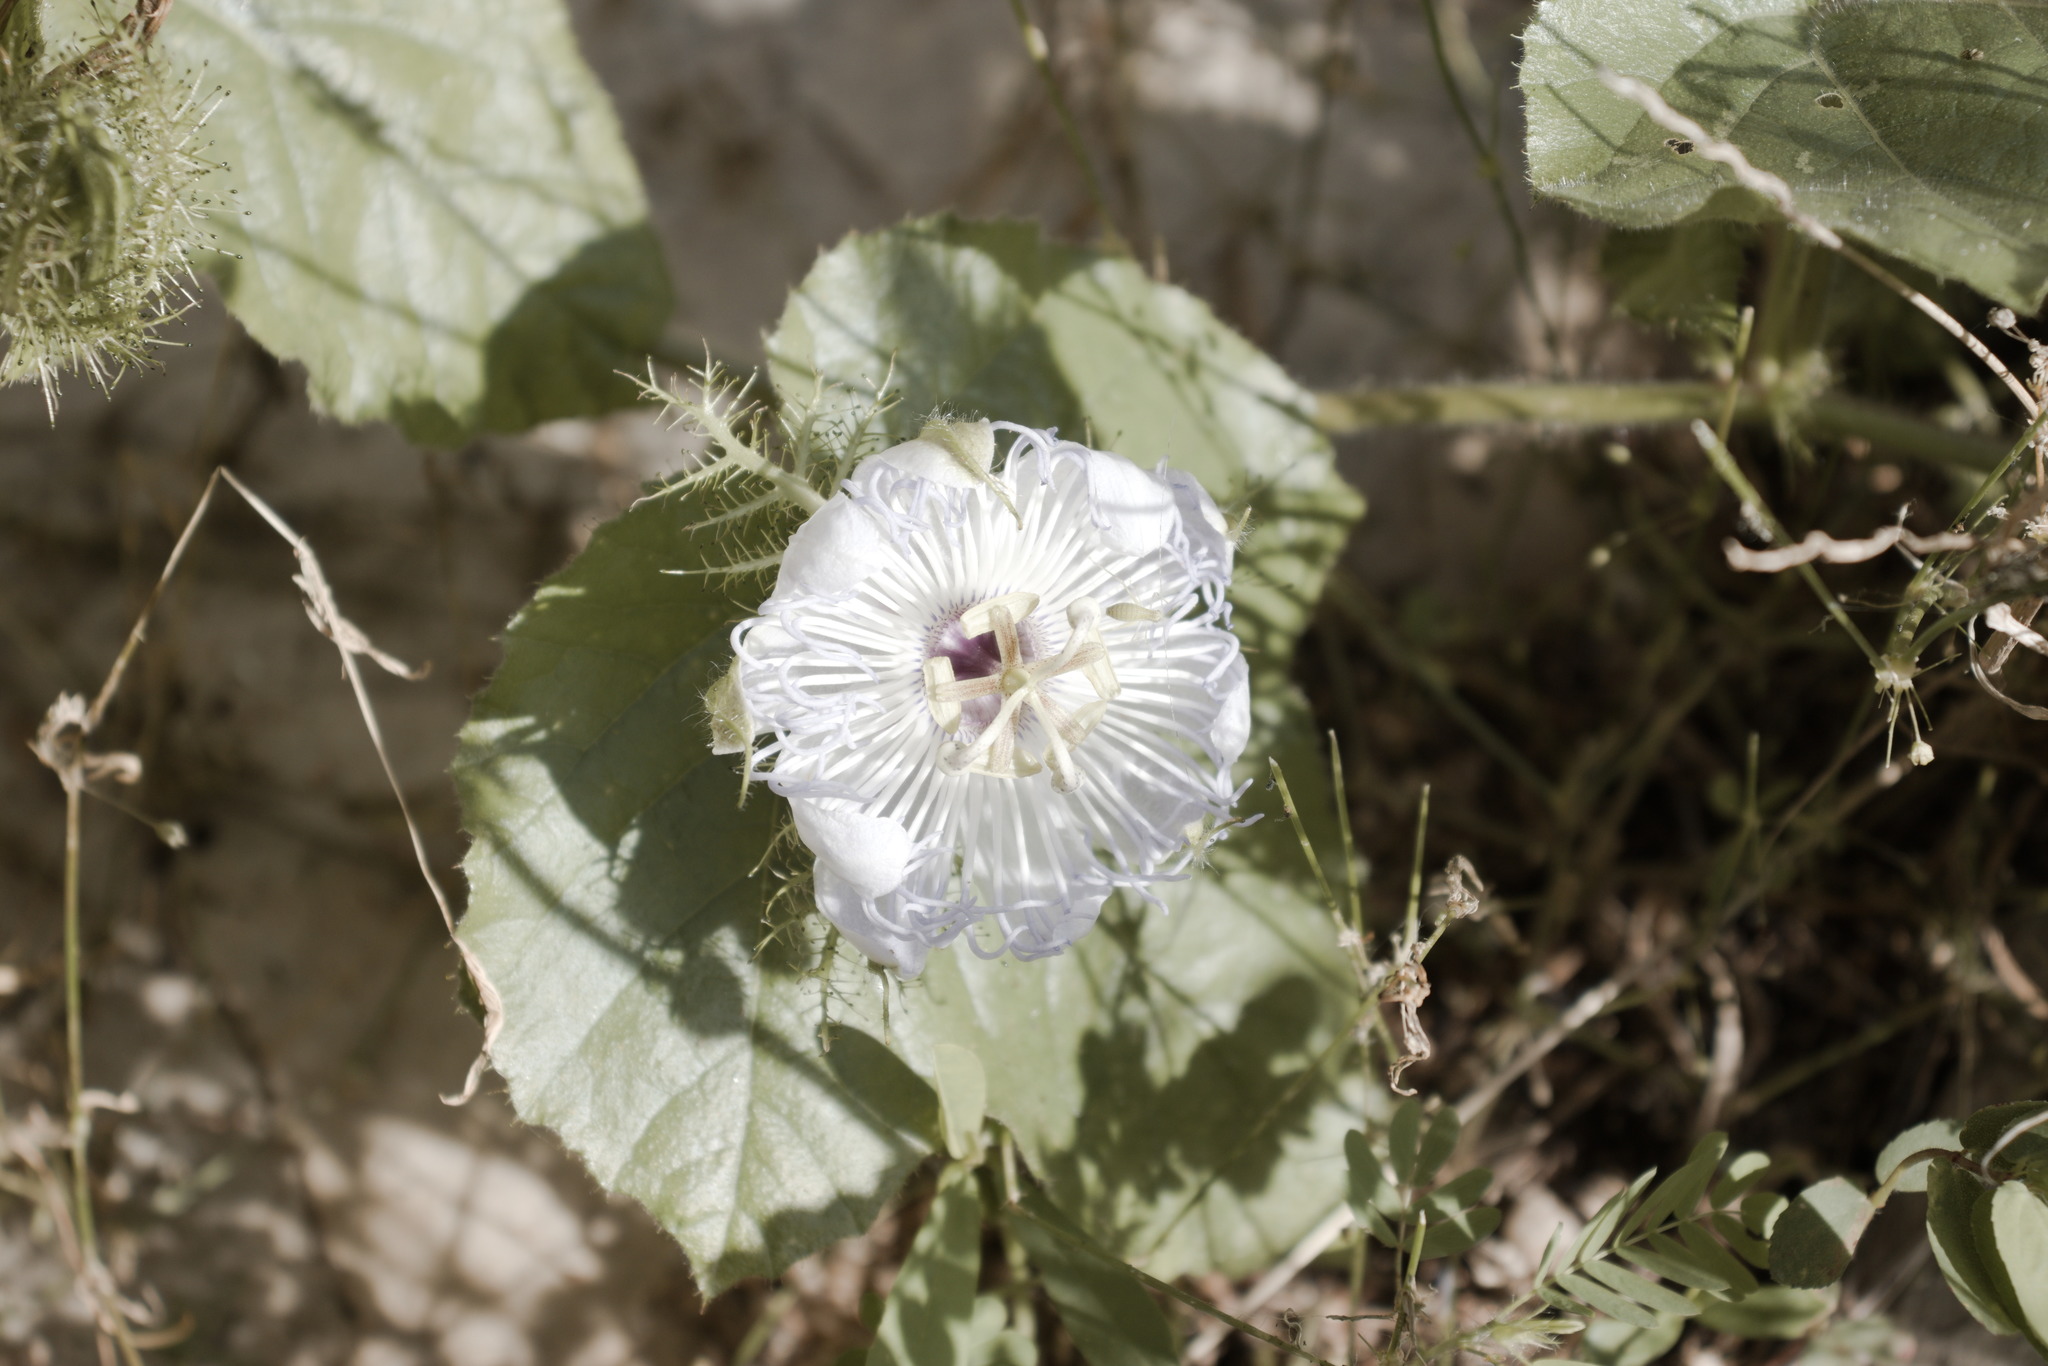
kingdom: Plantae
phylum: Tracheophyta
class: Magnoliopsida
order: Malpighiales
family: Passifloraceae
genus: Passiflora
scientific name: Passiflora foetida
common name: Fetid passionflower
